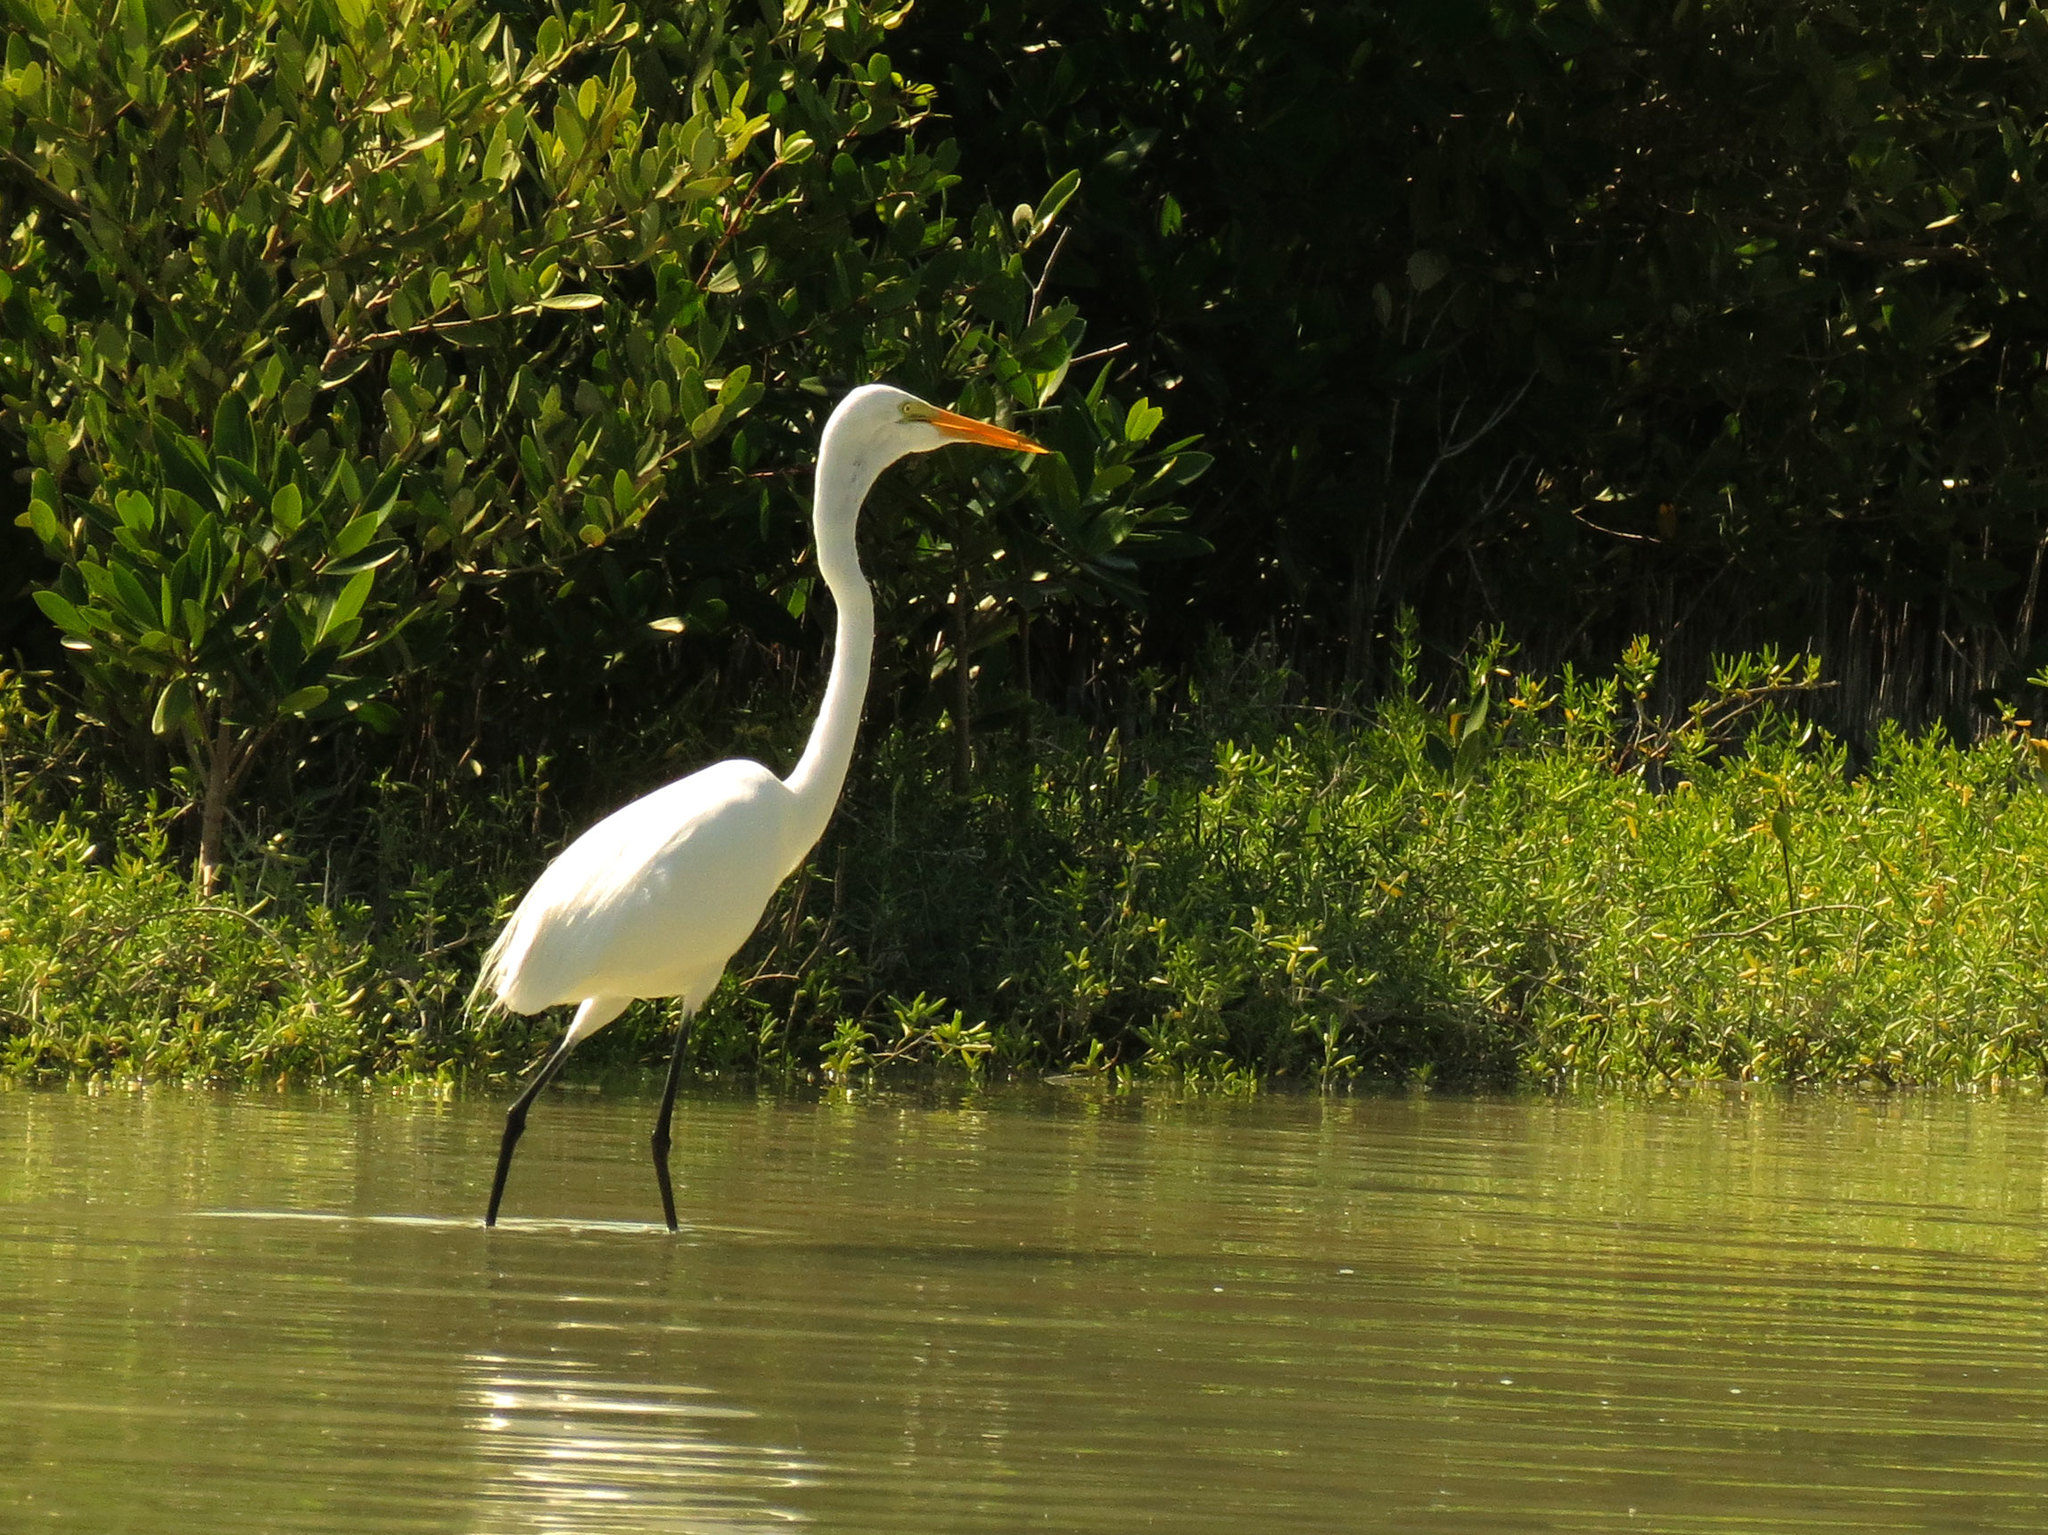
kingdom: Animalia
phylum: Chordata
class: Aves
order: Pelecaniformes
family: Ardeidae
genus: Ardea
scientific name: Ardea alba
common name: Great egret
